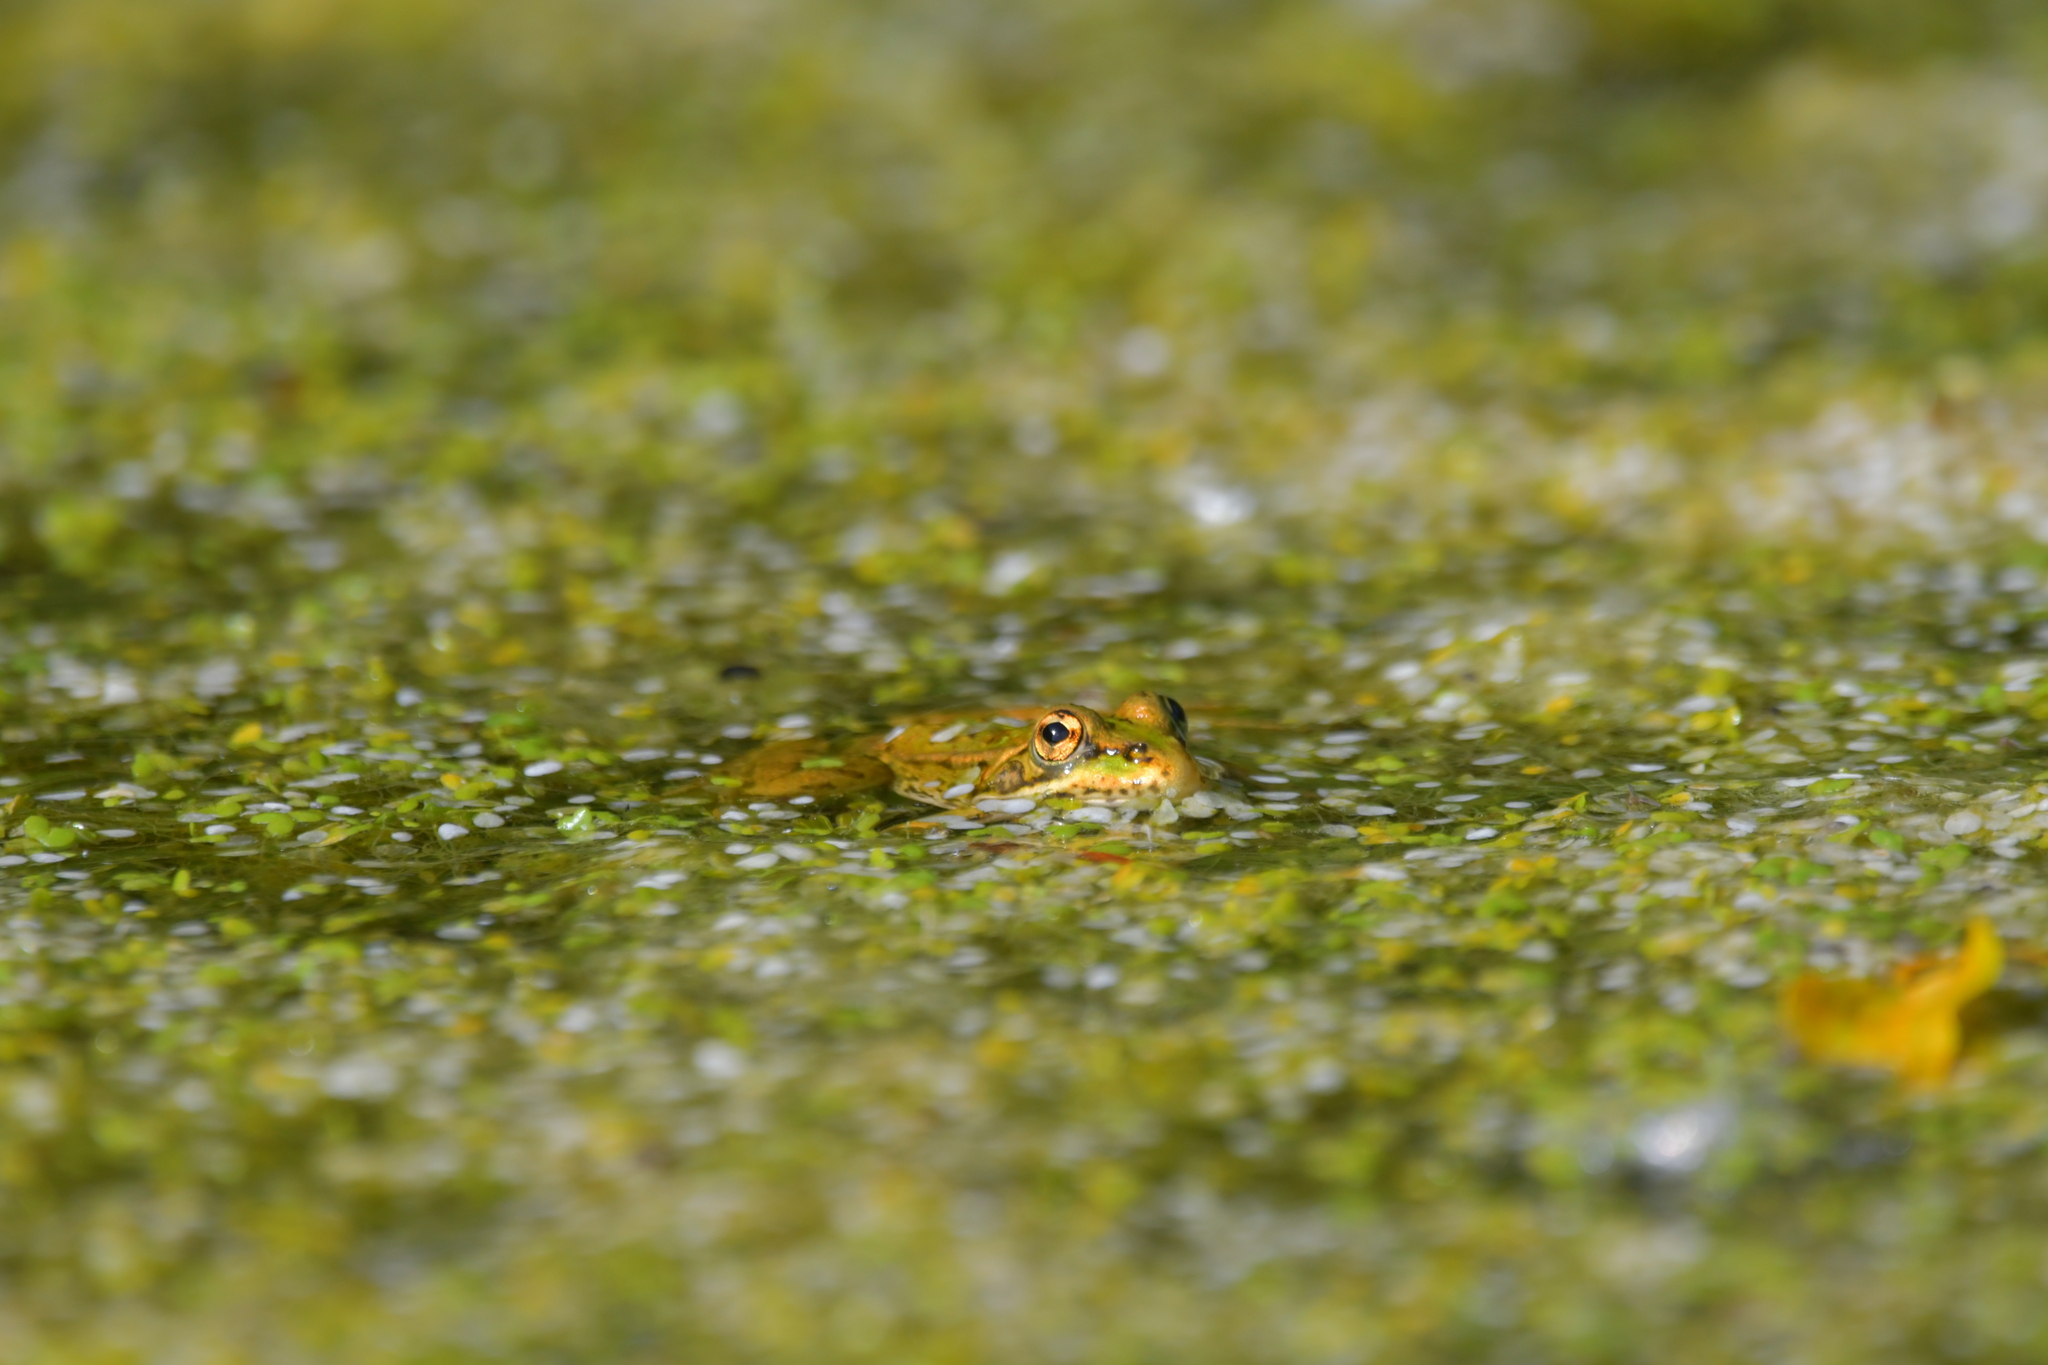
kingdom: Animalia
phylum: Chordata
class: Amphibia
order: Anura
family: Ranidae
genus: Pelophylax
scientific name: Pelophylax perezi
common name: Perez's frog
